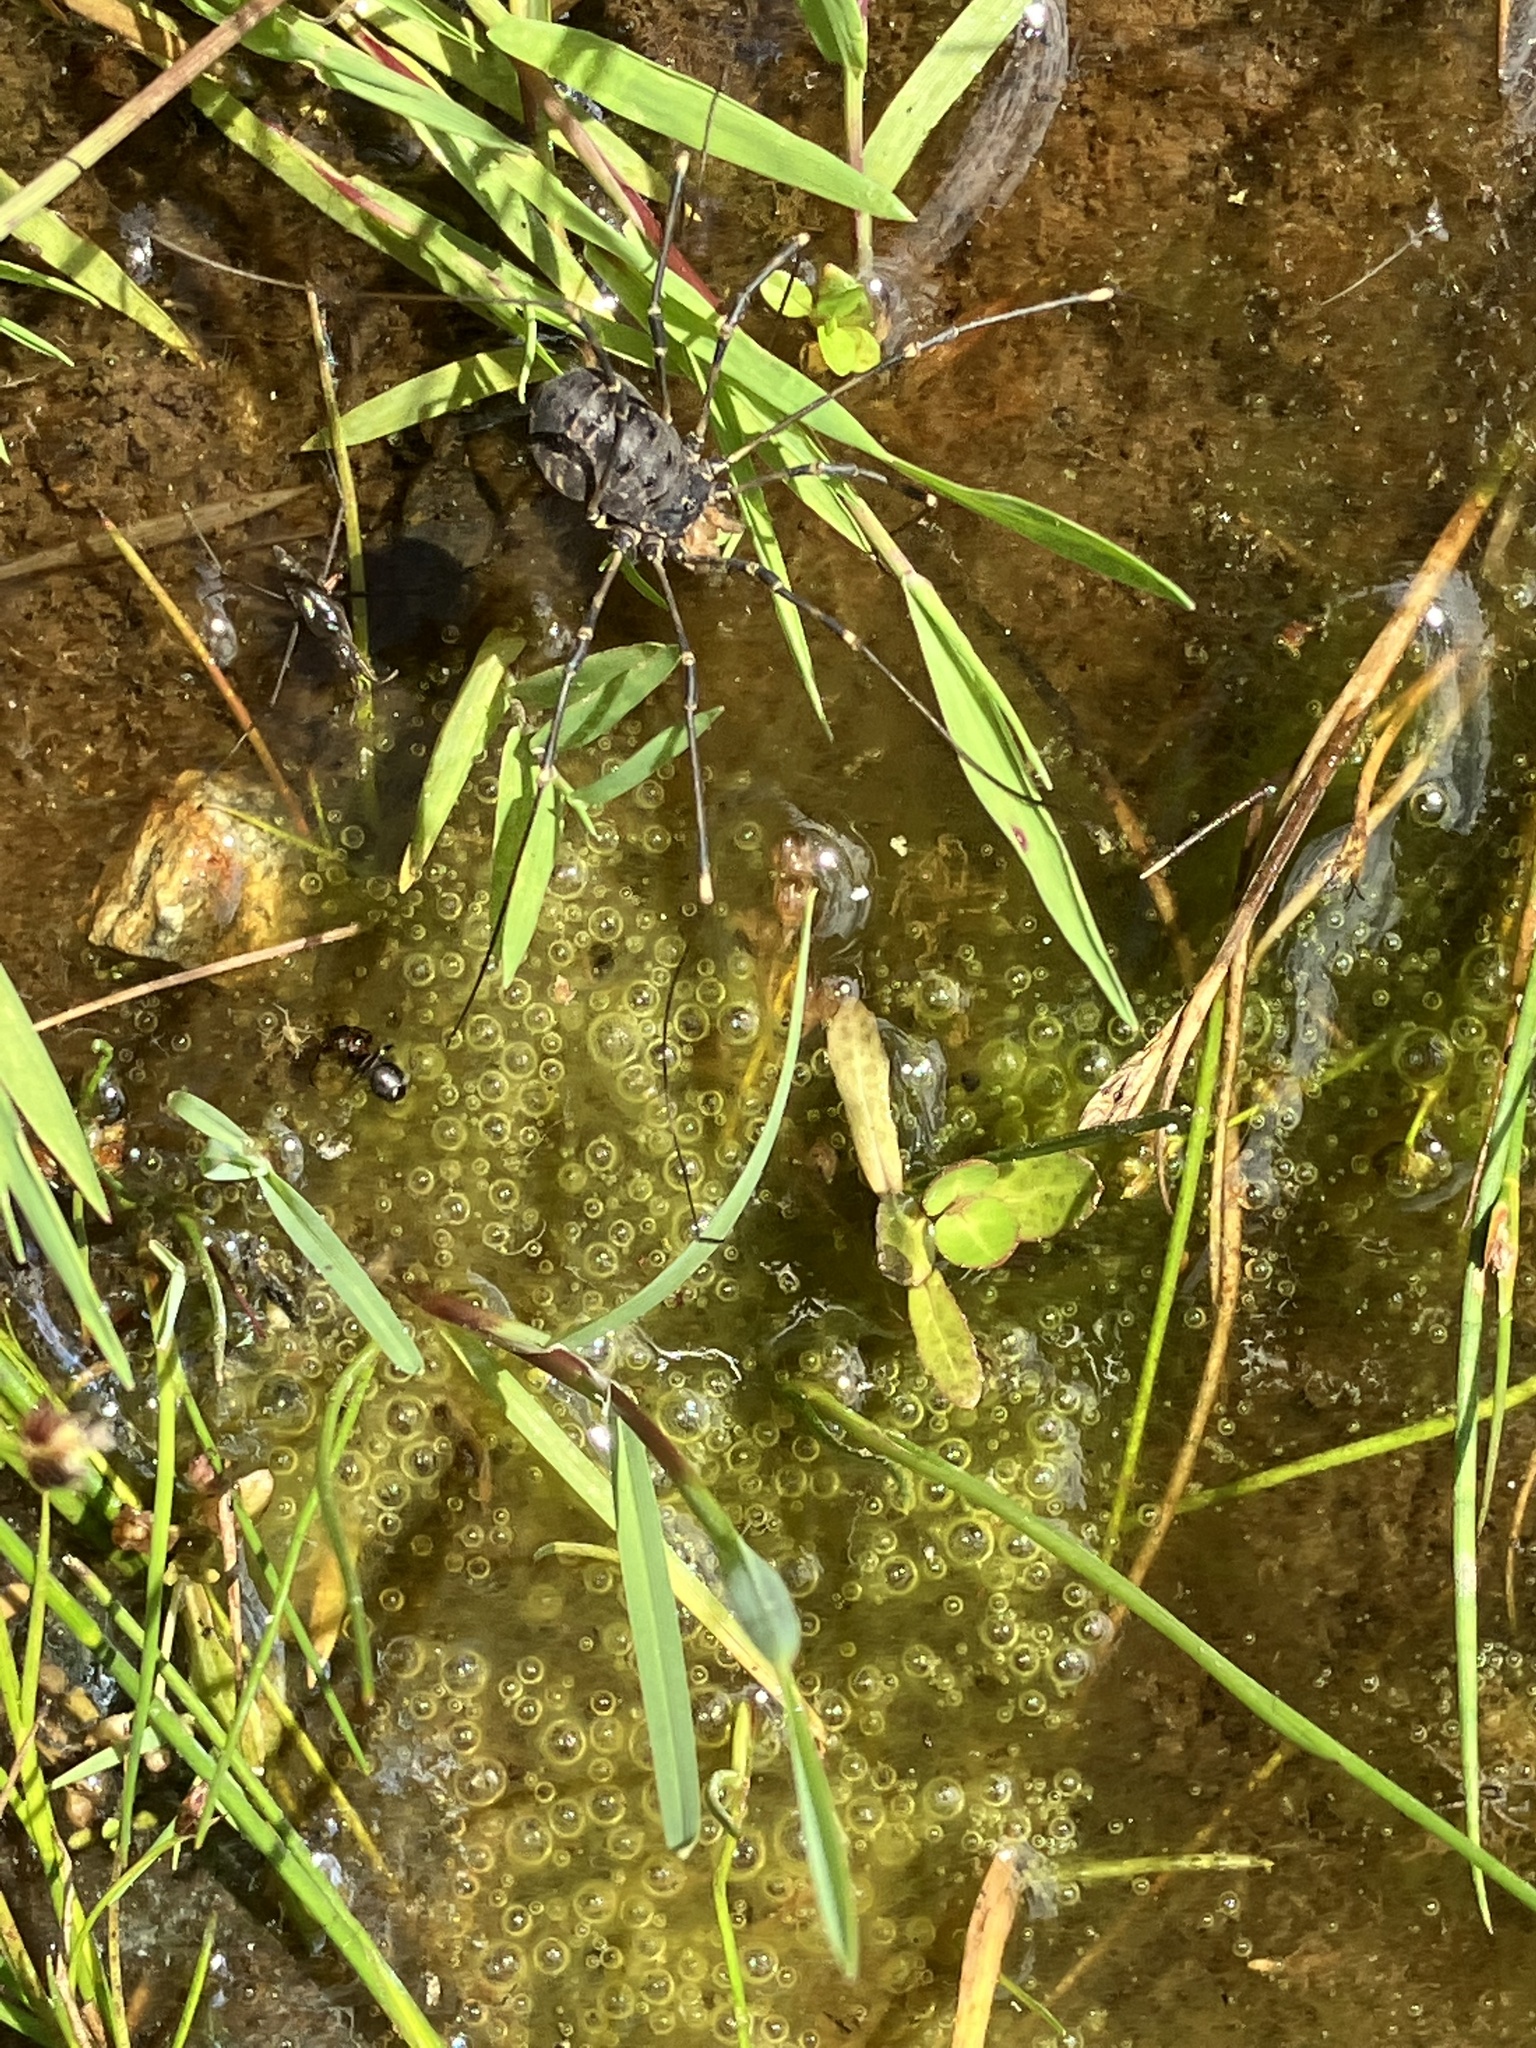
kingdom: Animalia
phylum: Arthropoda
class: Arachnida
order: Opiliones
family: Sclerosomatidae
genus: Gyas
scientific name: Gyas titanus
